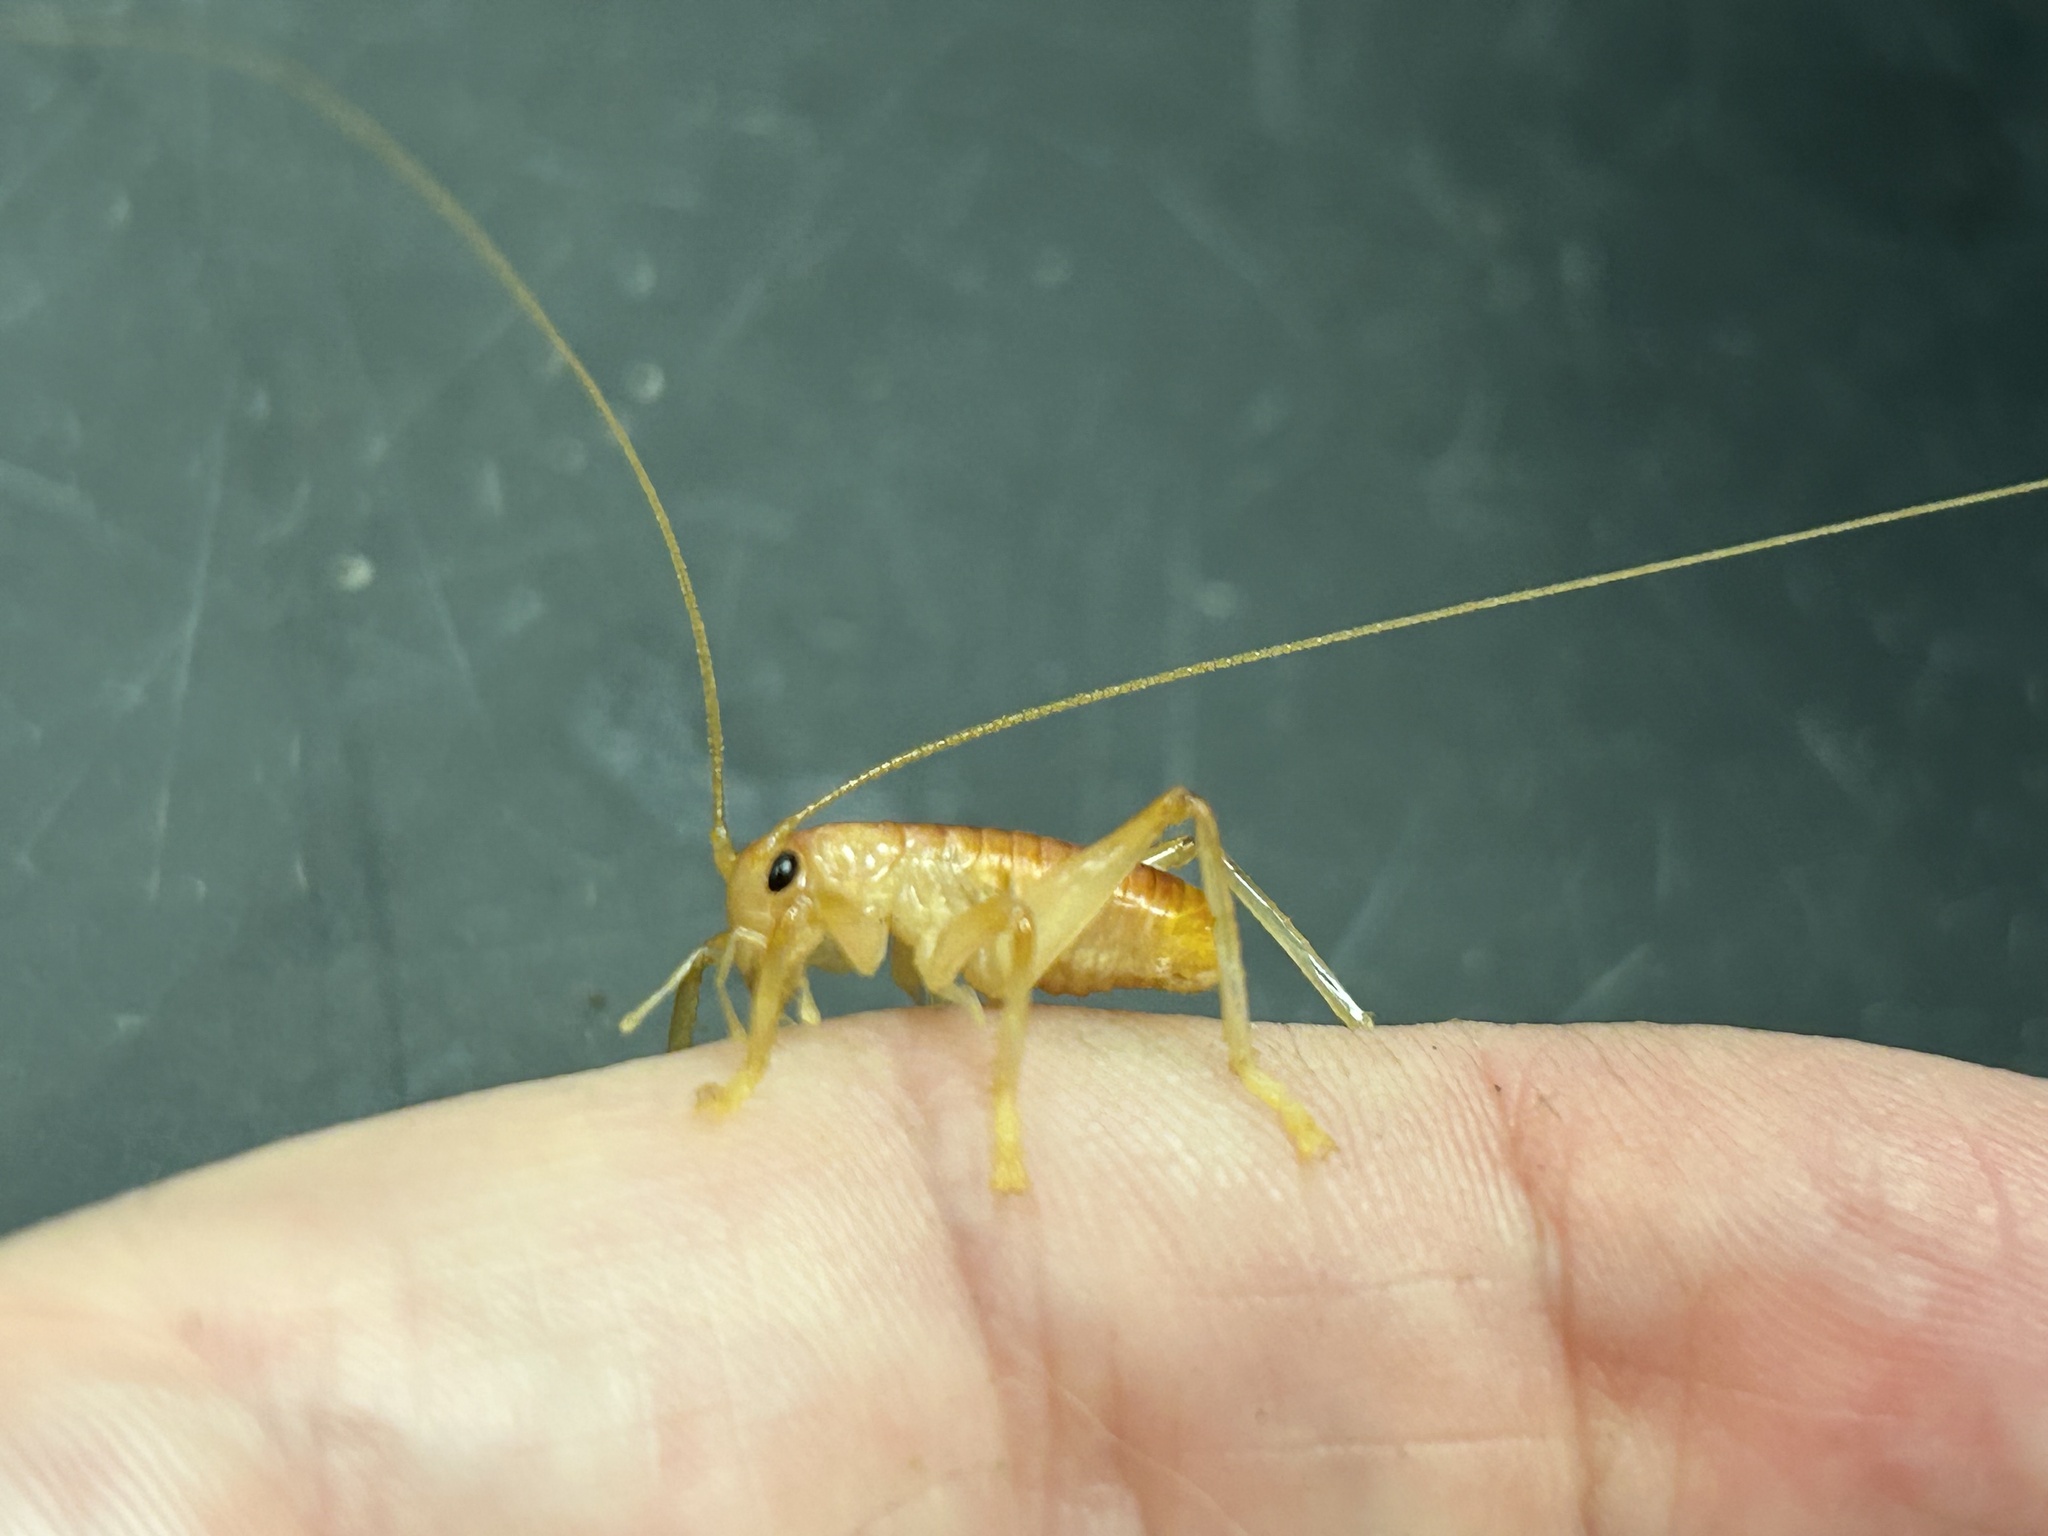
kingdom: Animalia
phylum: Arthropoda
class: Insecta
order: Orthoptera
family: Gryllacrididae
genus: Camptonotus
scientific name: Camptonotus carolinensis
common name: Carolina leaf-roller
